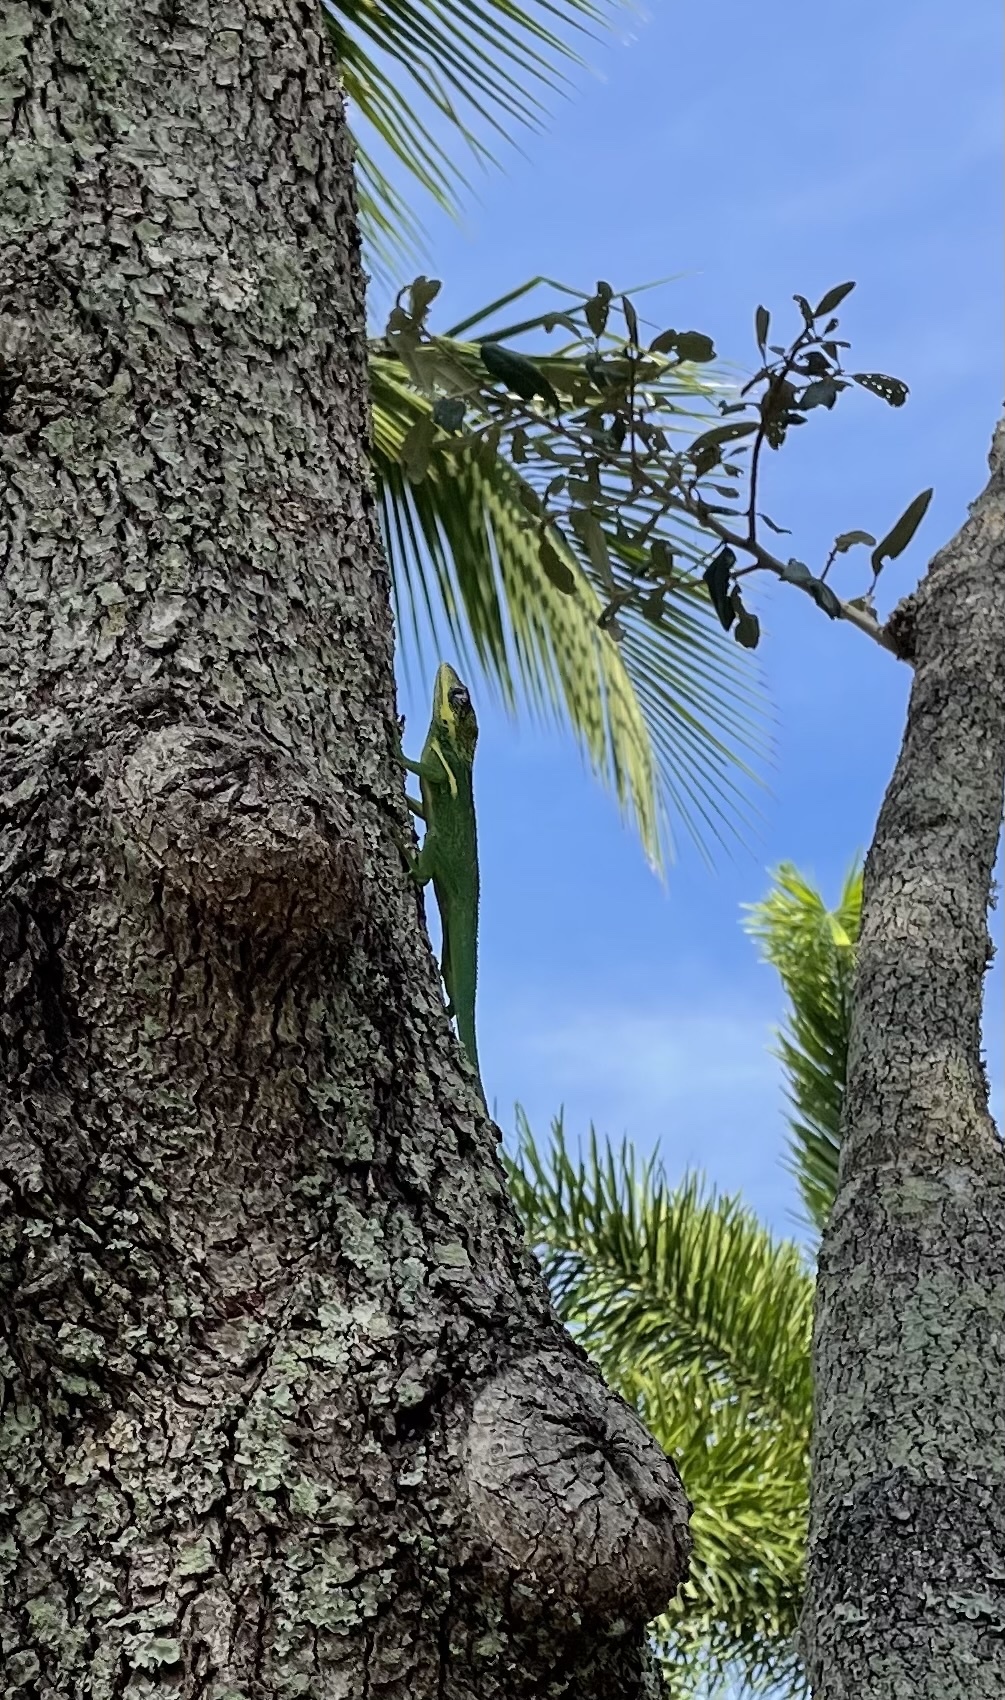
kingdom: Animalia
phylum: Chordata
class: Squamata
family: Dactyloidae
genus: Anolis
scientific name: Anolis equestris
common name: Knight anole
